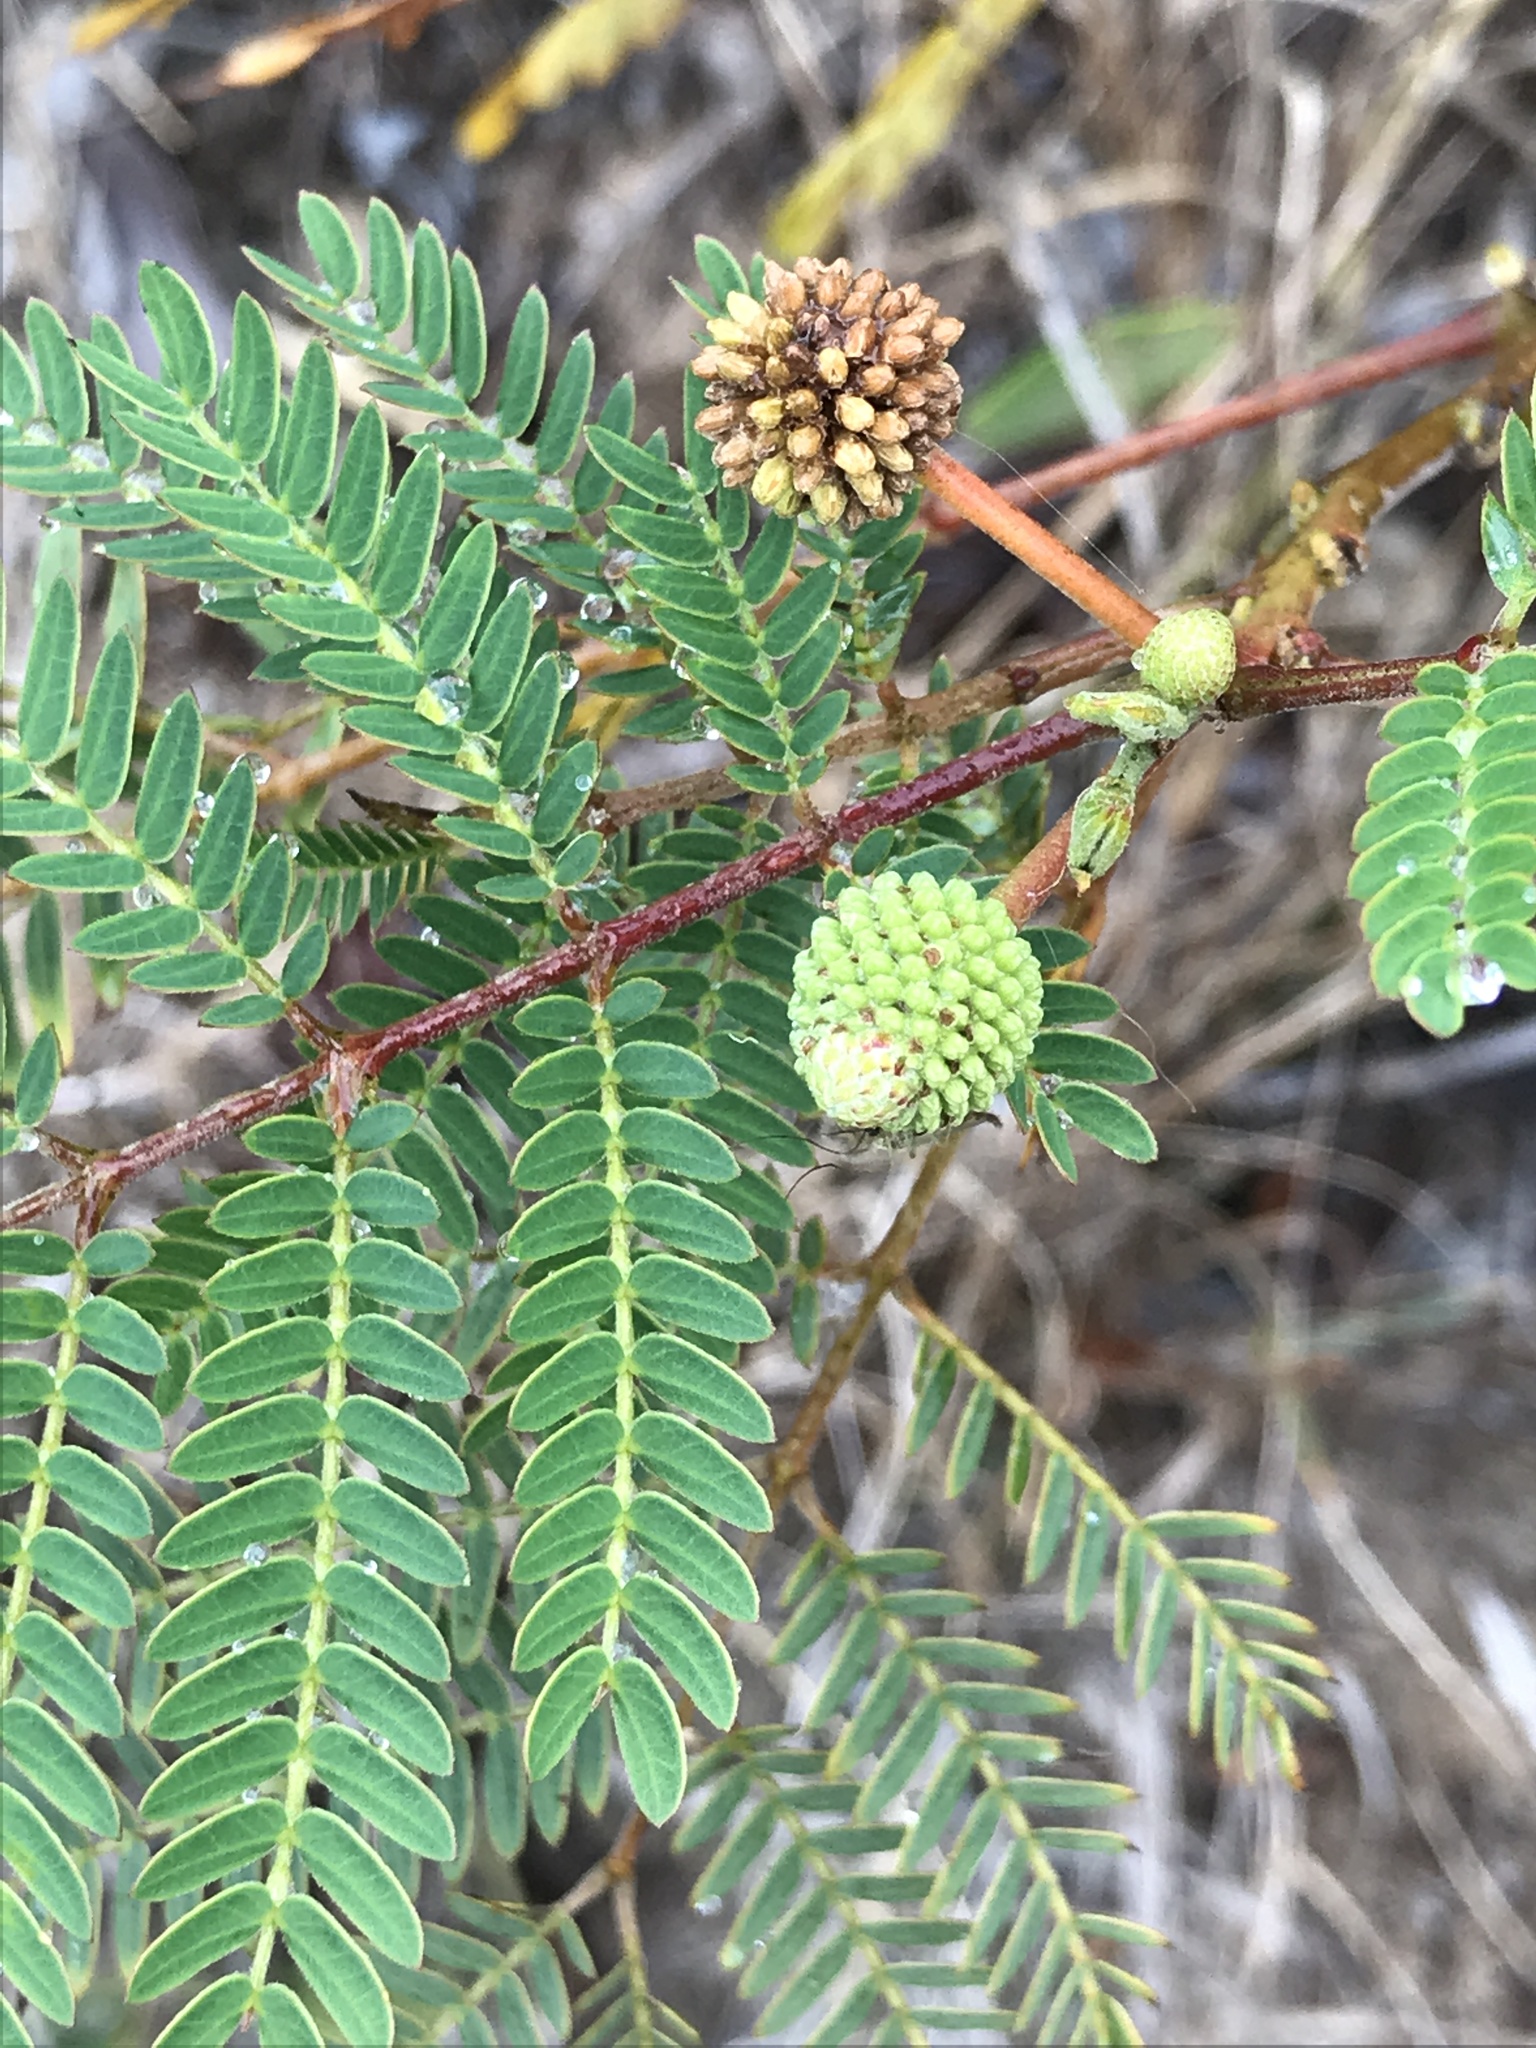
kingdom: Plantae
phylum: Tracheophyta
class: Magnoliopsida
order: Fabales
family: Fabaceae
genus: Leucaena
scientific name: Leucaena leucocephala
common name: White leadtree
